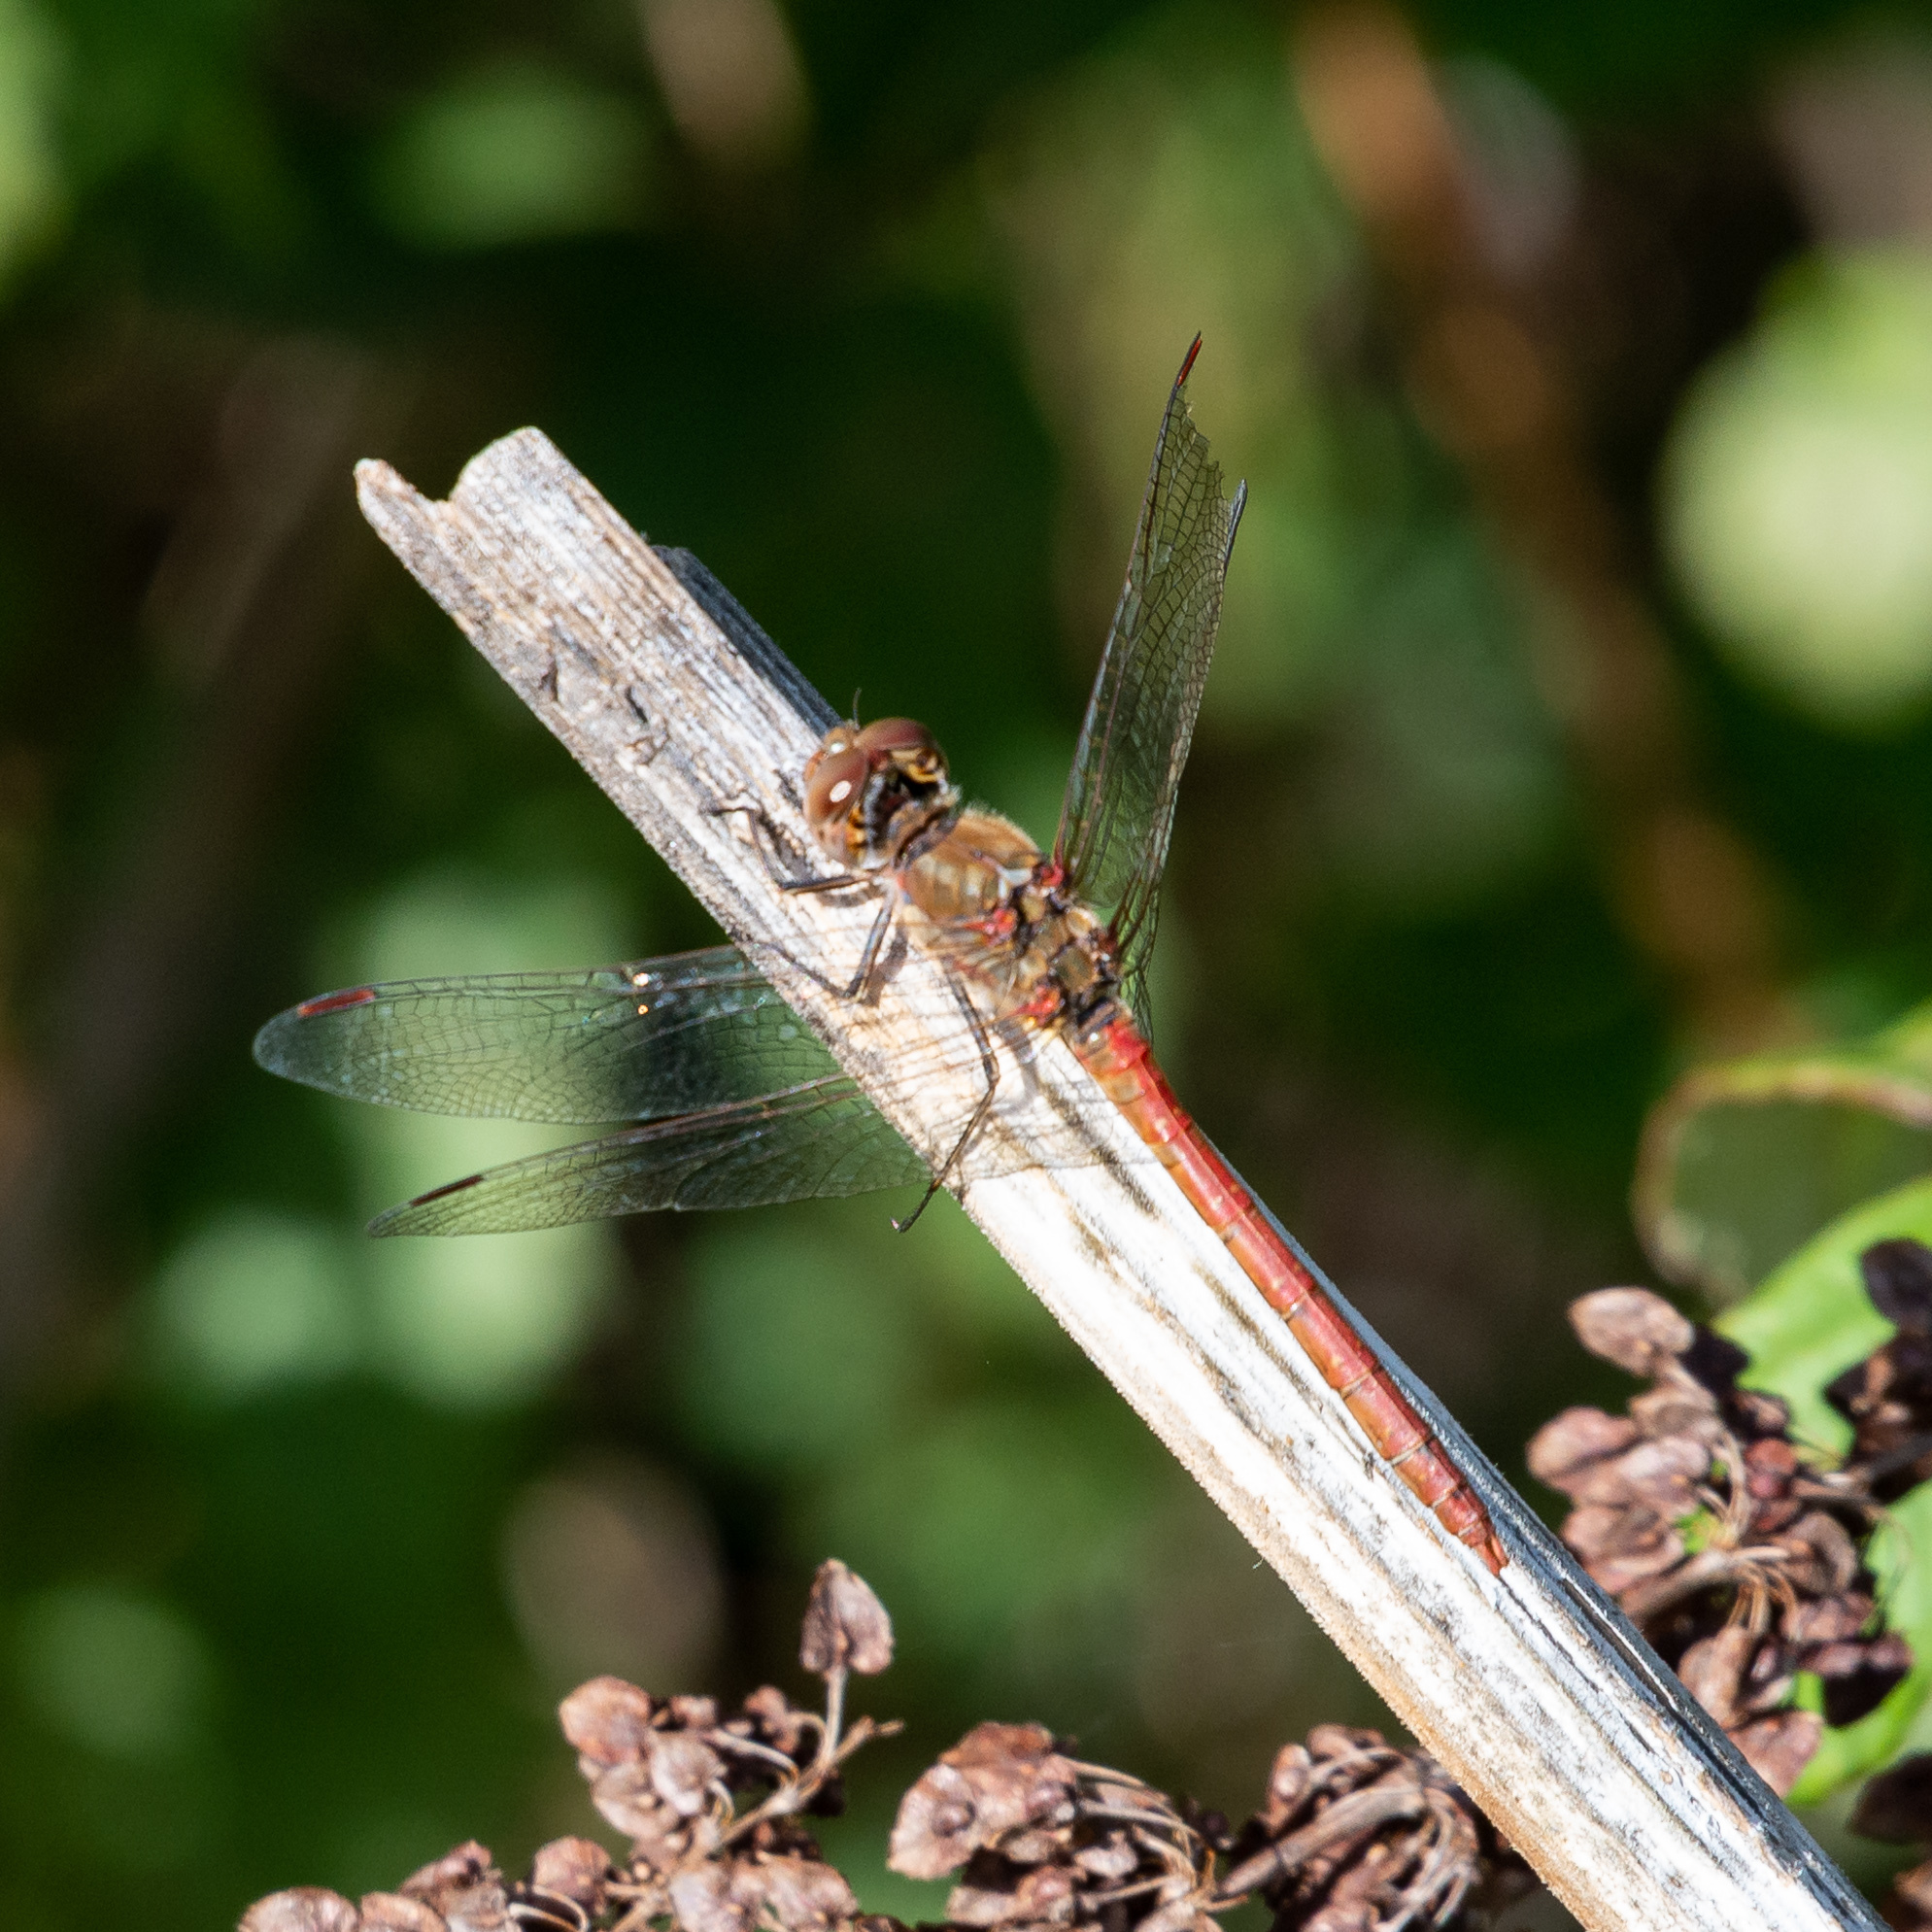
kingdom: Animalia
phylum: Arthropoda
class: Insecta
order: Odonata
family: Libellulidae
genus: Sympetrum
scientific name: Sympetrum striolatum
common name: Common darter
